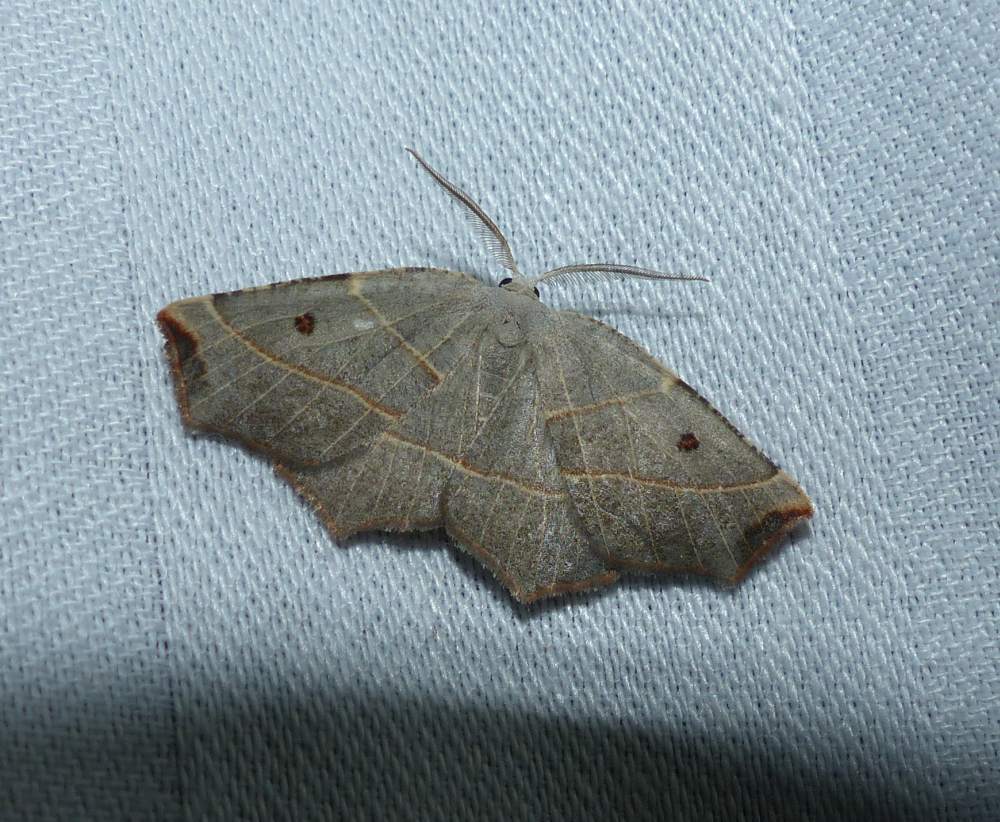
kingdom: Animalia
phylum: Arthropoda
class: Insecta
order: Lepidoptera
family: Geometridae
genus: Metanema
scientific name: Metanema inatomaria
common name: Pale metanema
